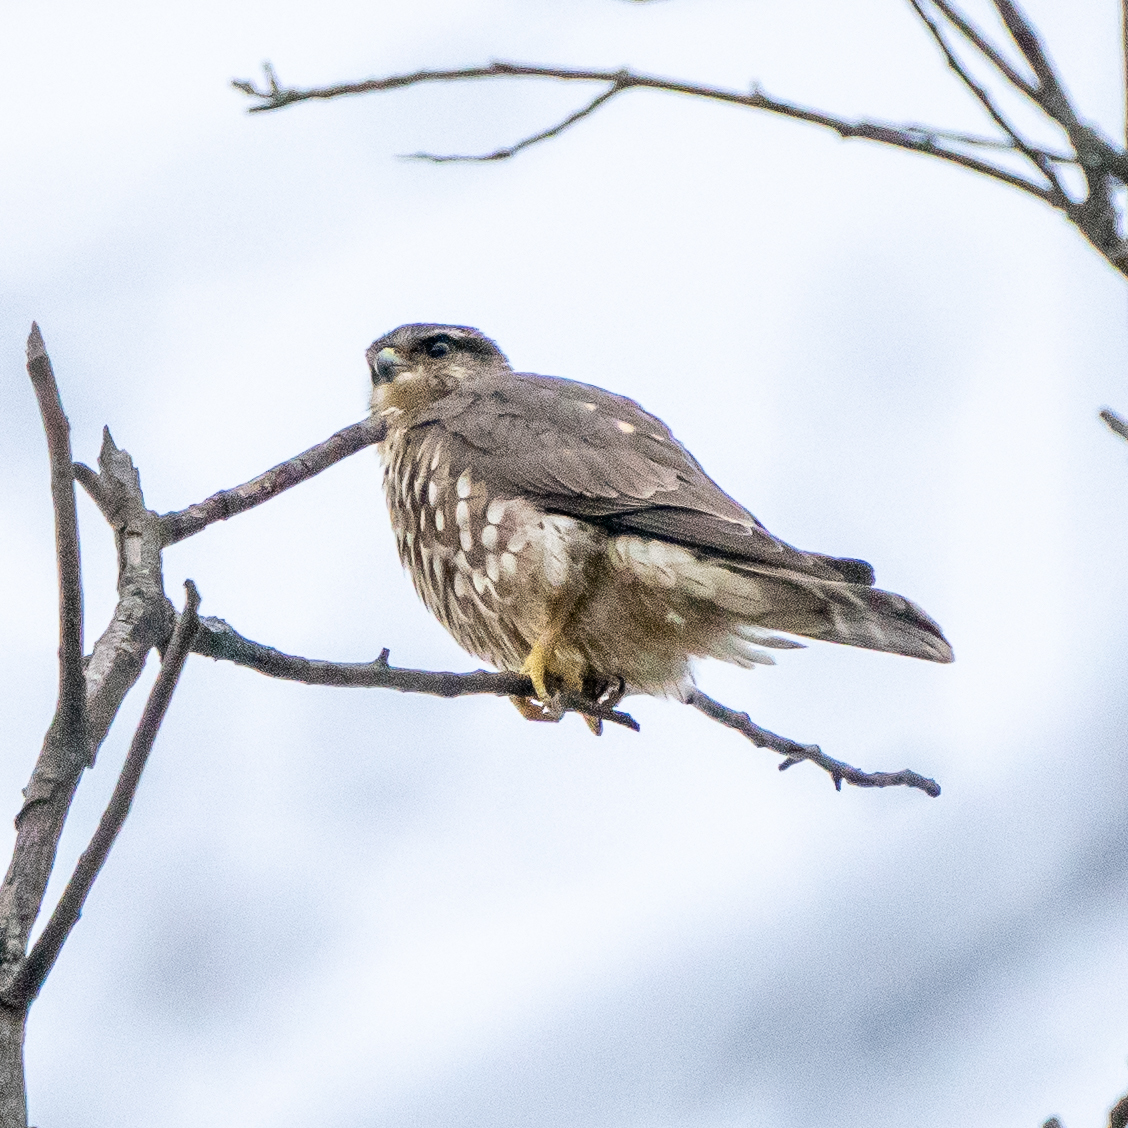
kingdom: Animalia
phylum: Chordata
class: Aves
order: Falconiformes
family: Falconidae
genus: Falco
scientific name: Falco columbarius
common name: Merlin
